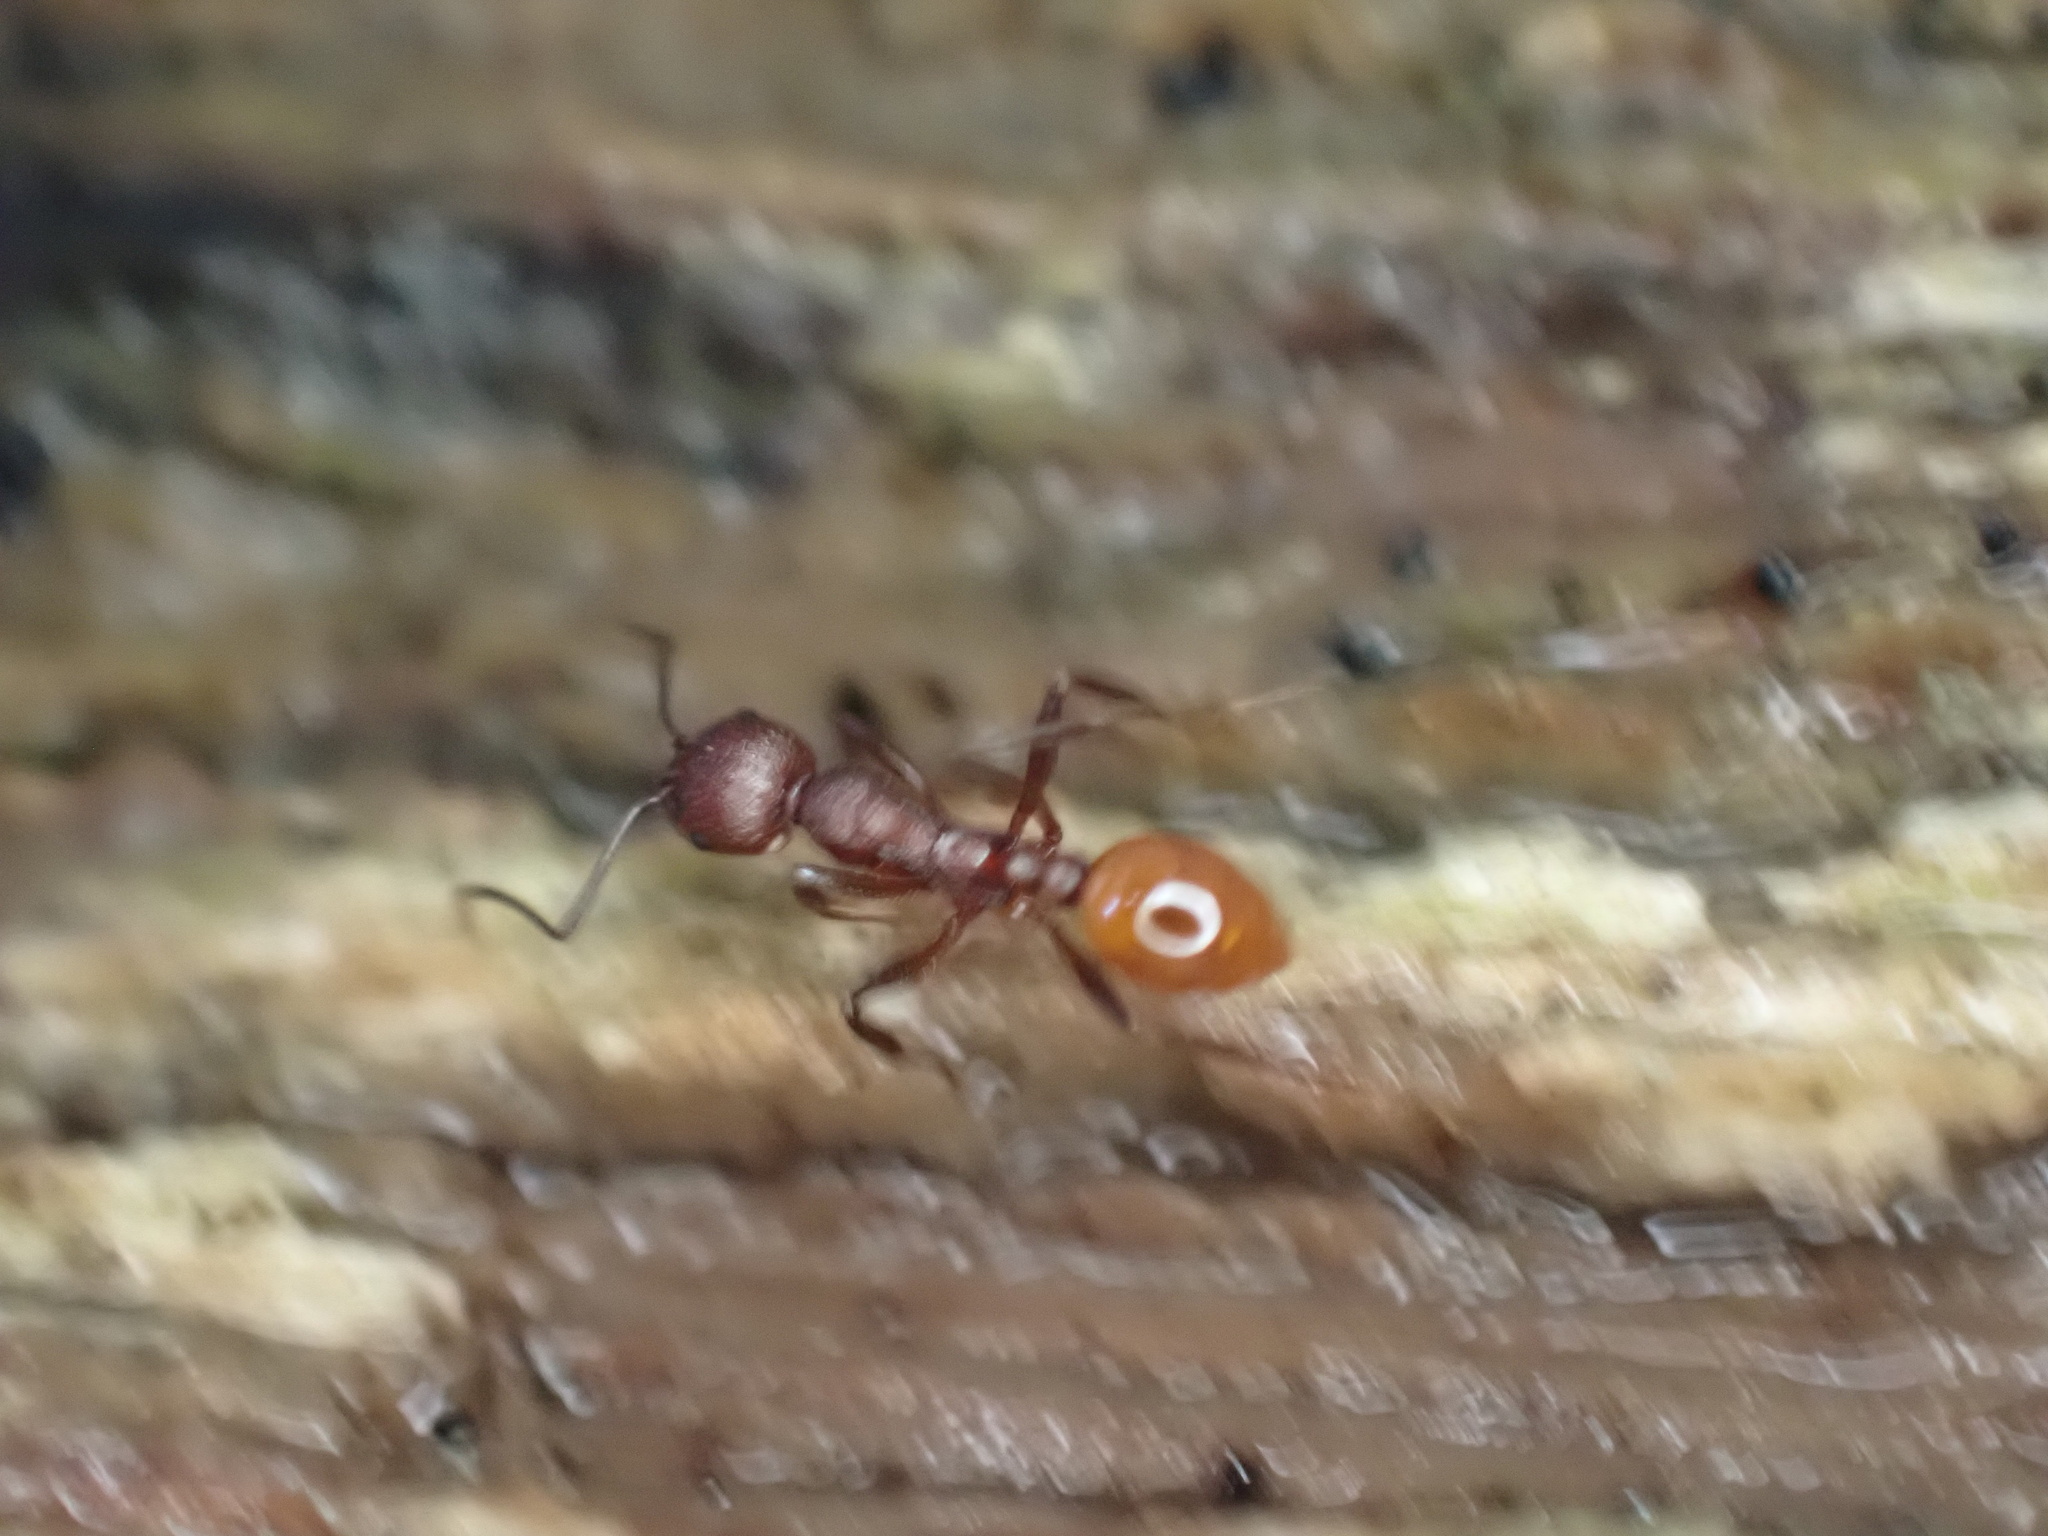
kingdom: Animalia
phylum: Arthropoda
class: Insecta
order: Hymenoptera
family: Formicidae
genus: Aphaenogaster
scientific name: Aphaenogaster tennesseensis
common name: Tennessee thread-waisted ant
